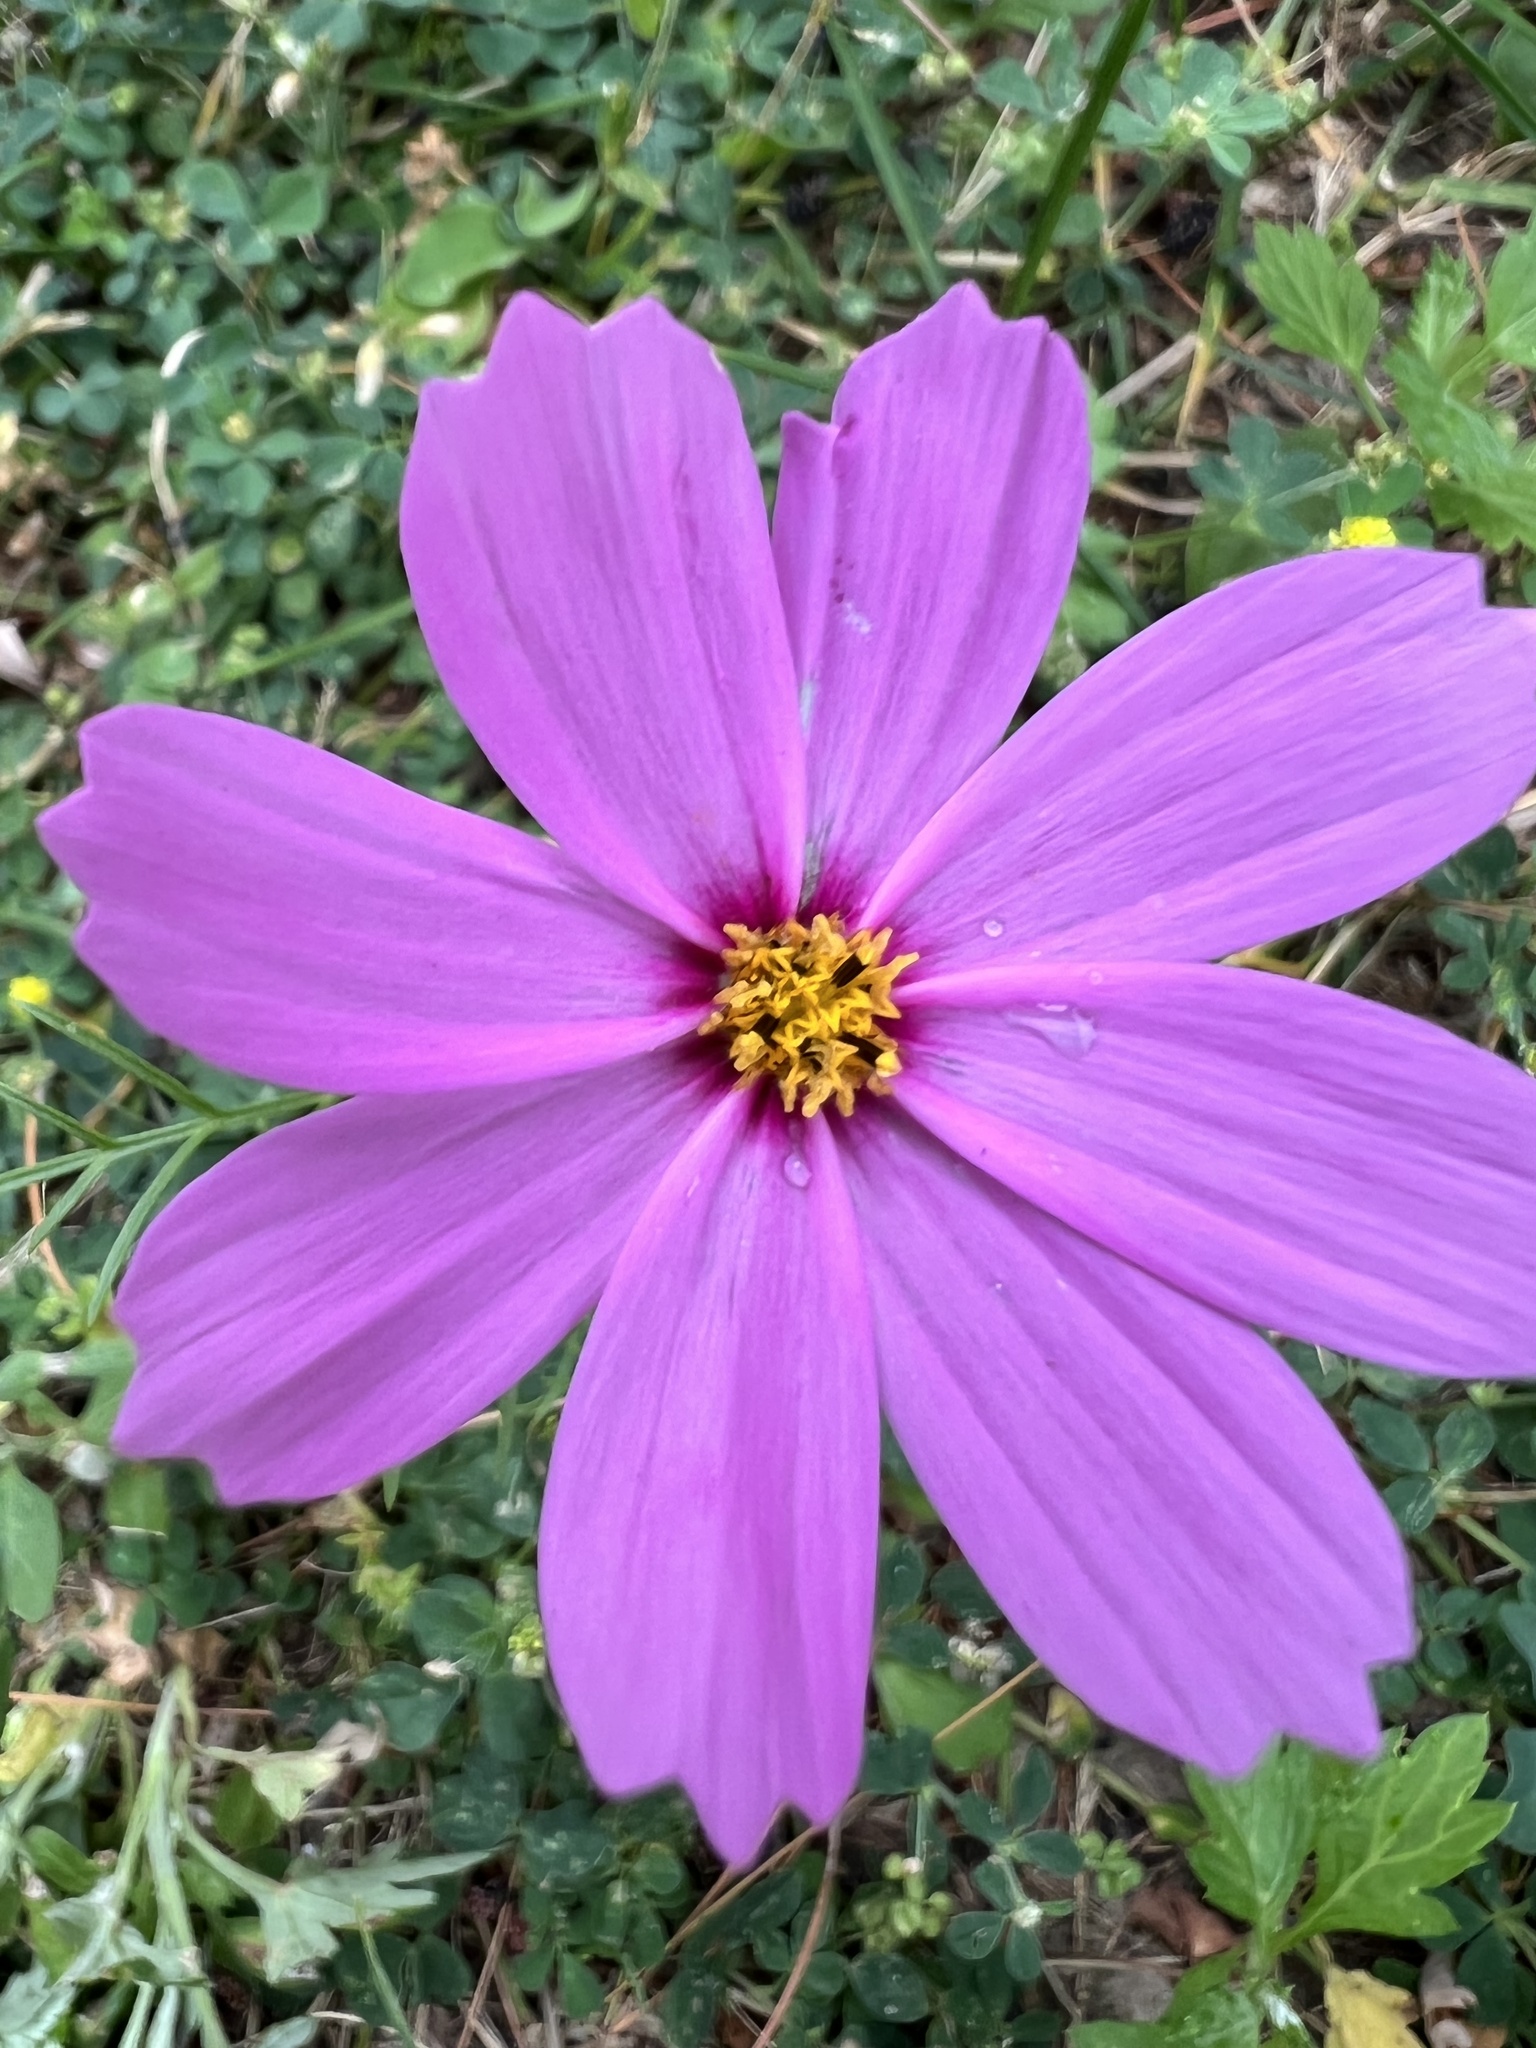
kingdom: Plantae
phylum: Tracheophyta
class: Magnoliopsida
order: Asterales
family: Asteraceae
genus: Cosmos
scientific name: Cosmos bipinnatus
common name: Garden cosmos
